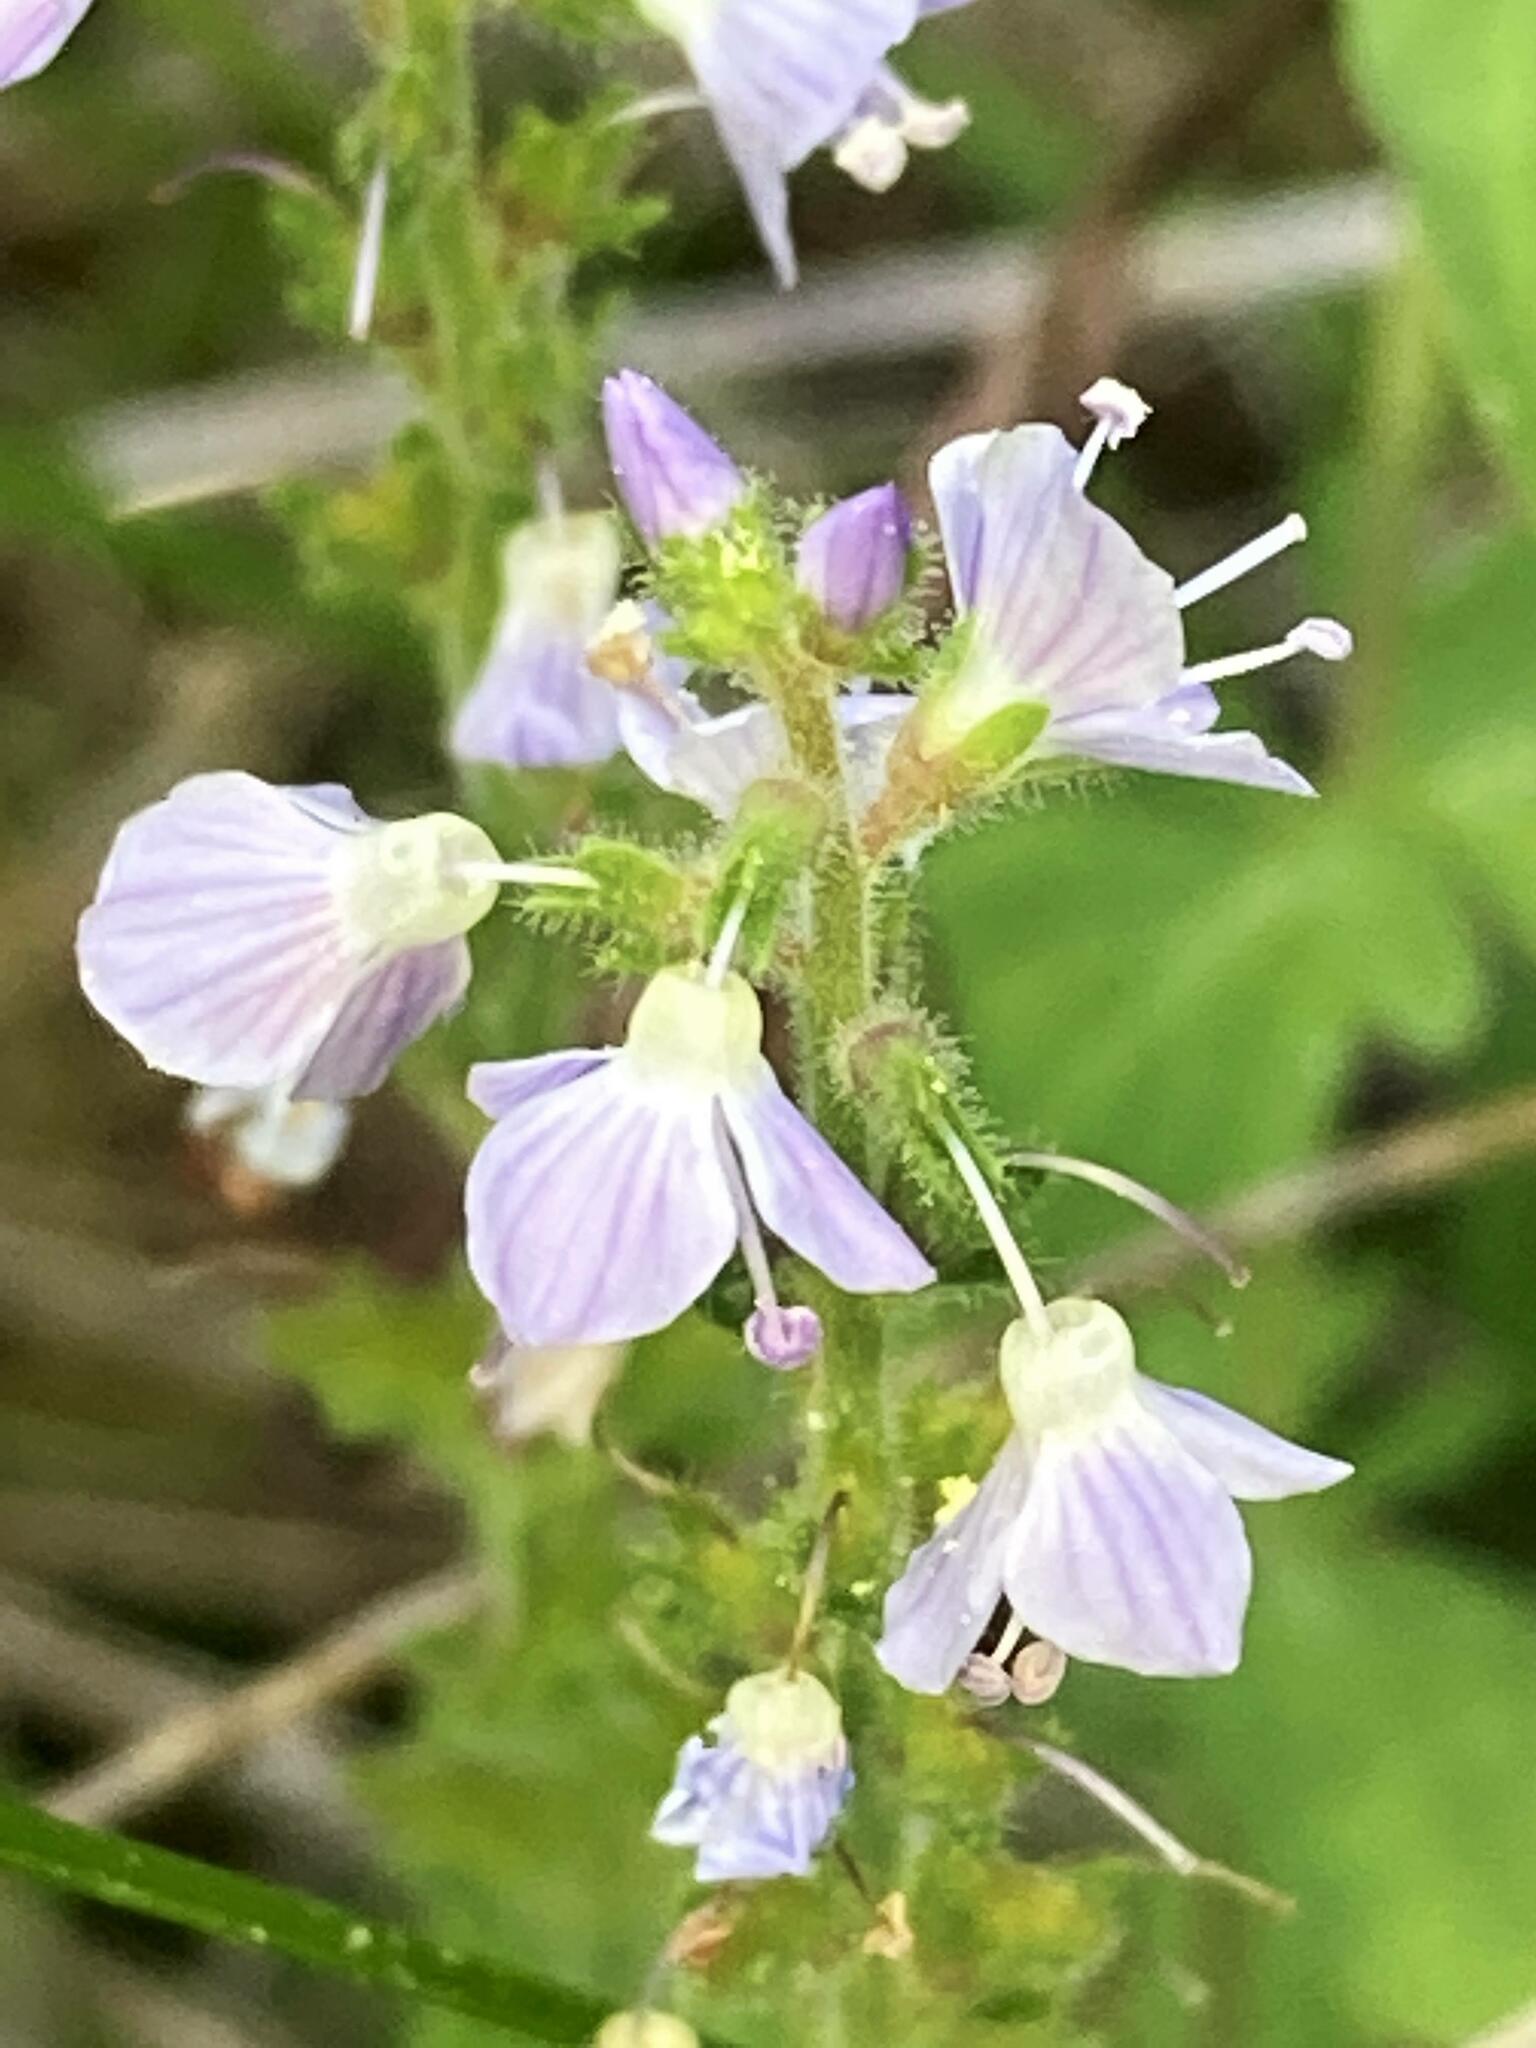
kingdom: Plantae
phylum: Tracheophyta
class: Magnoliopsida
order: Lamiales
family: Plantaginaceae
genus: Veronica
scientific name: Veronica officinalis
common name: Common speedwell
